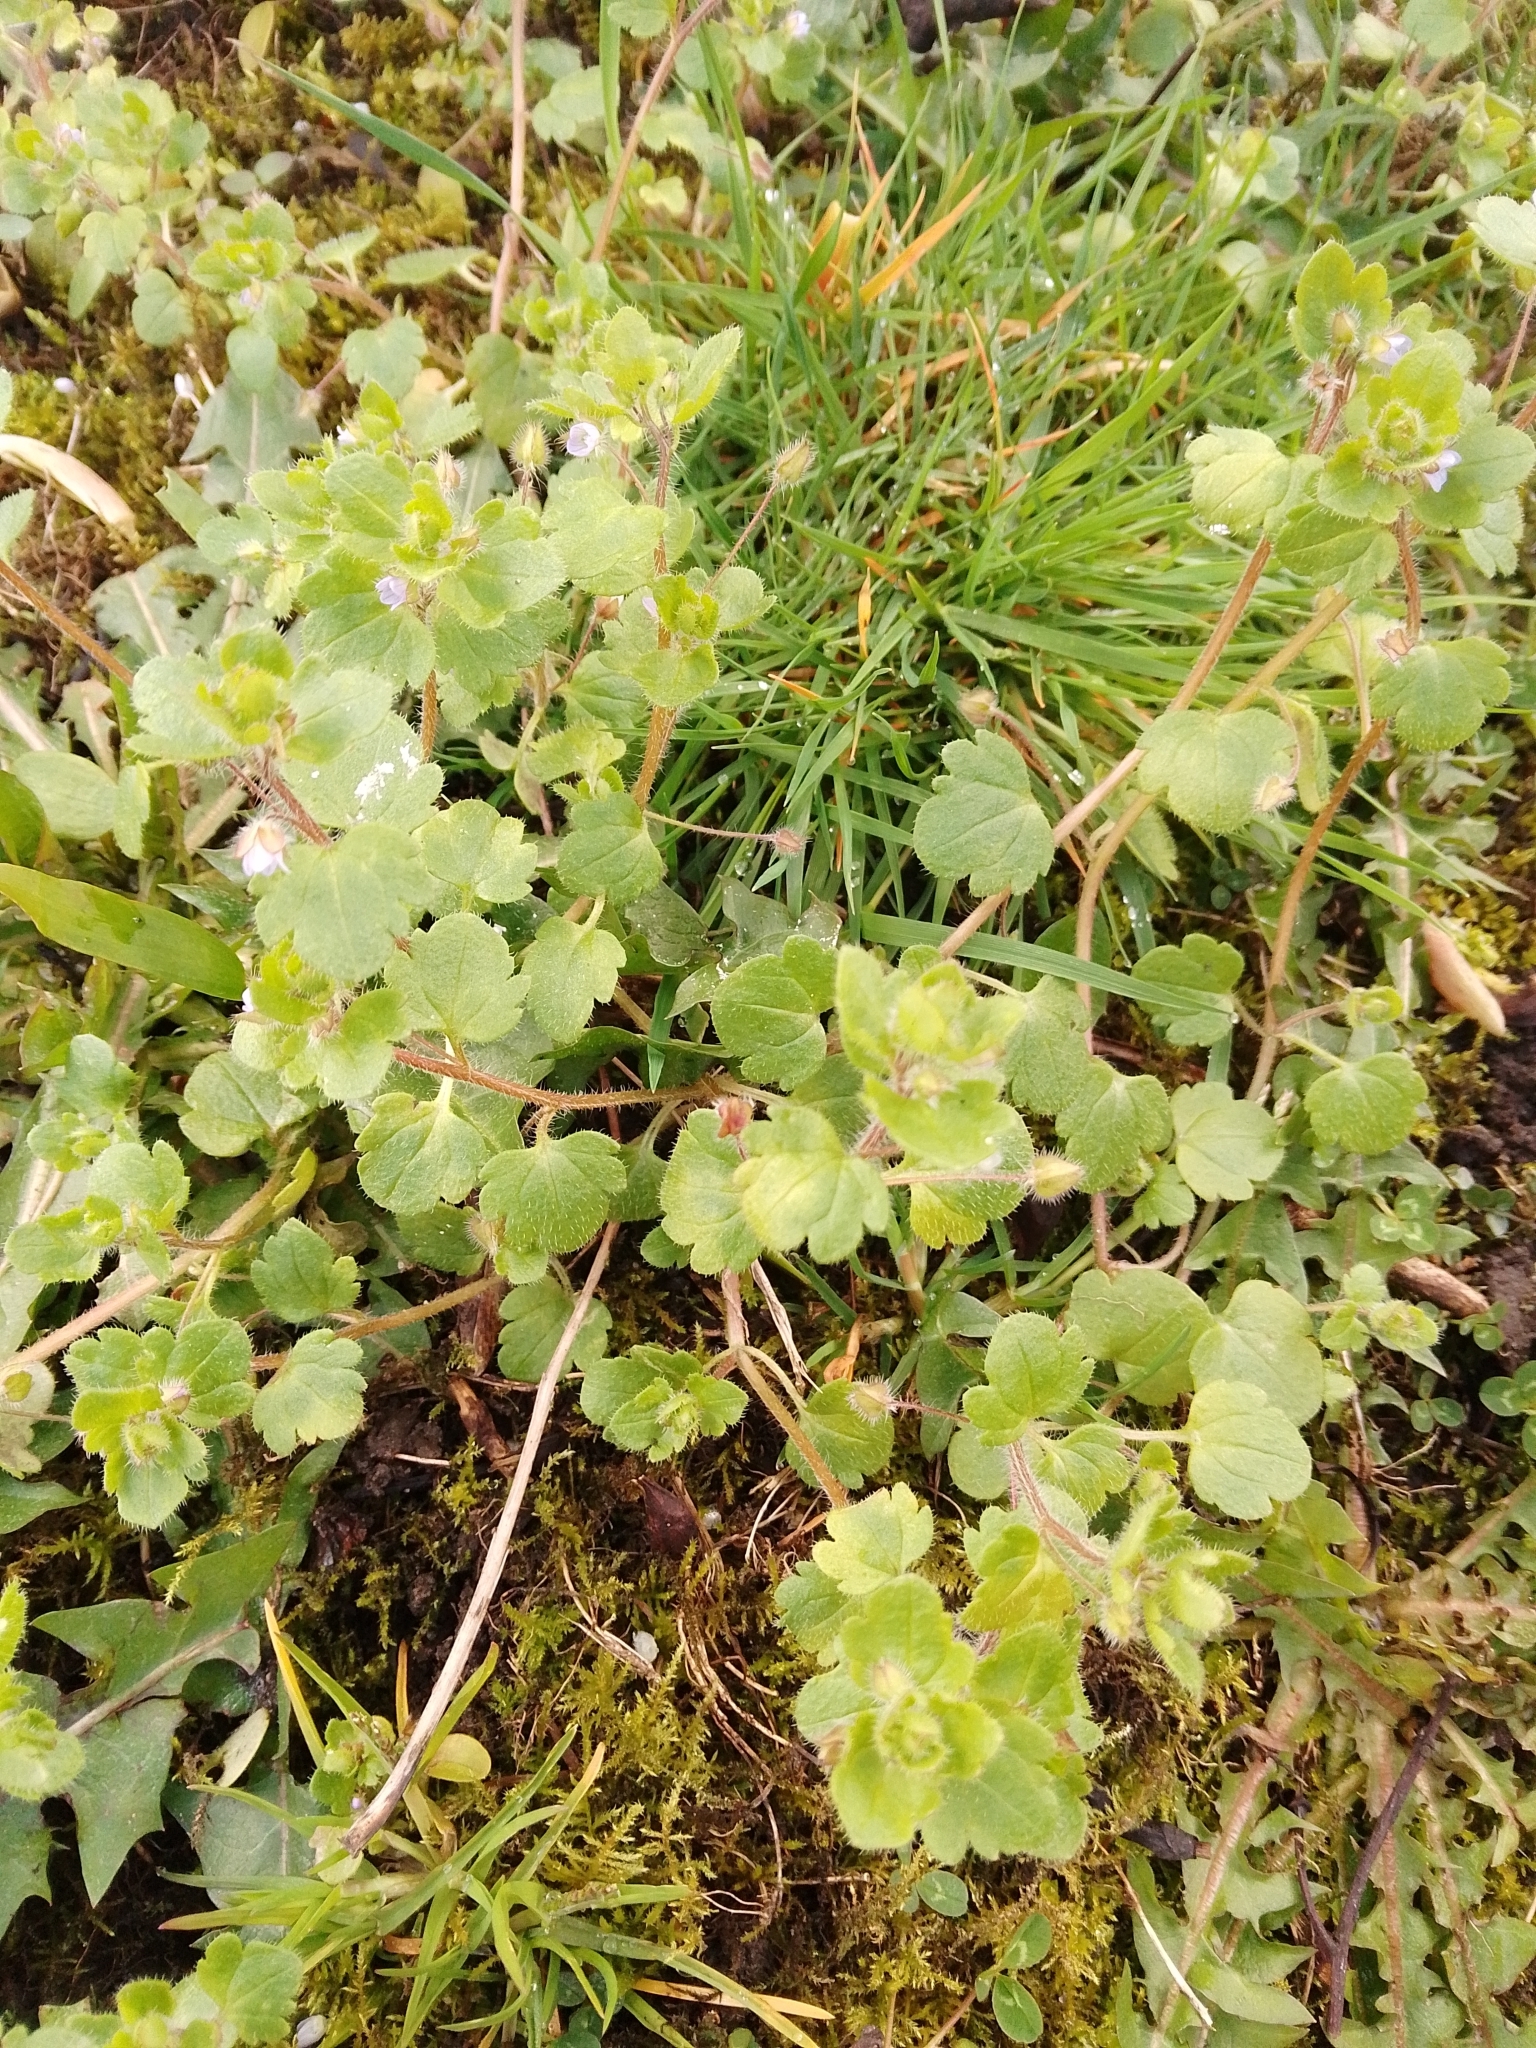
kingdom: Plantae
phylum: Tracheophyta
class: Magnoliopsida
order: Lamiales
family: Plantaginaceae
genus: Veronica
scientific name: Veronica hederifolia
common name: Ivy-leaved speedwell
